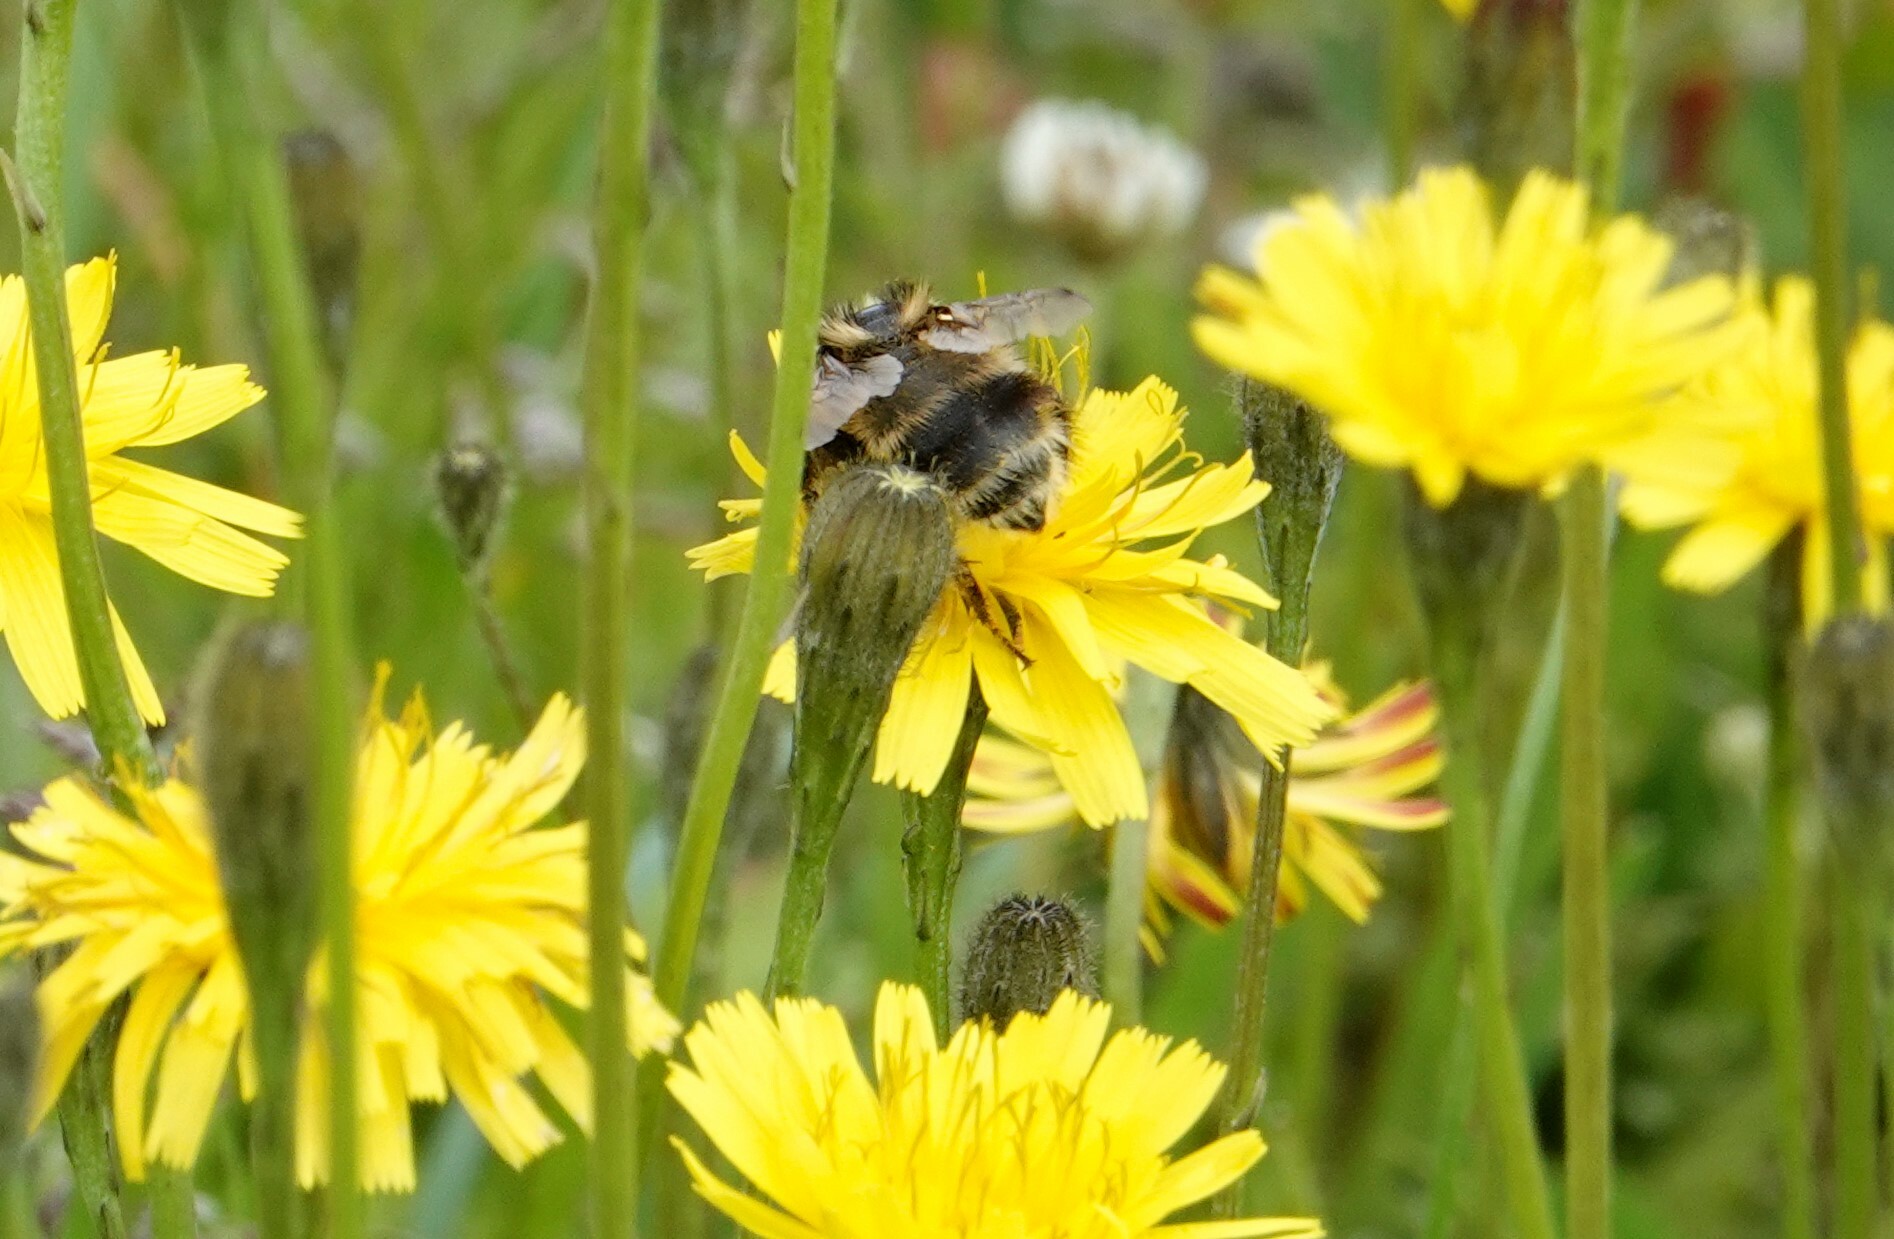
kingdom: Animalia
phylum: Arthropoda
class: Insecta
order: Hymenoptera
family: Apidae
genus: Bombus
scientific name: Bombus vagans
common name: Half-black bumble bee
